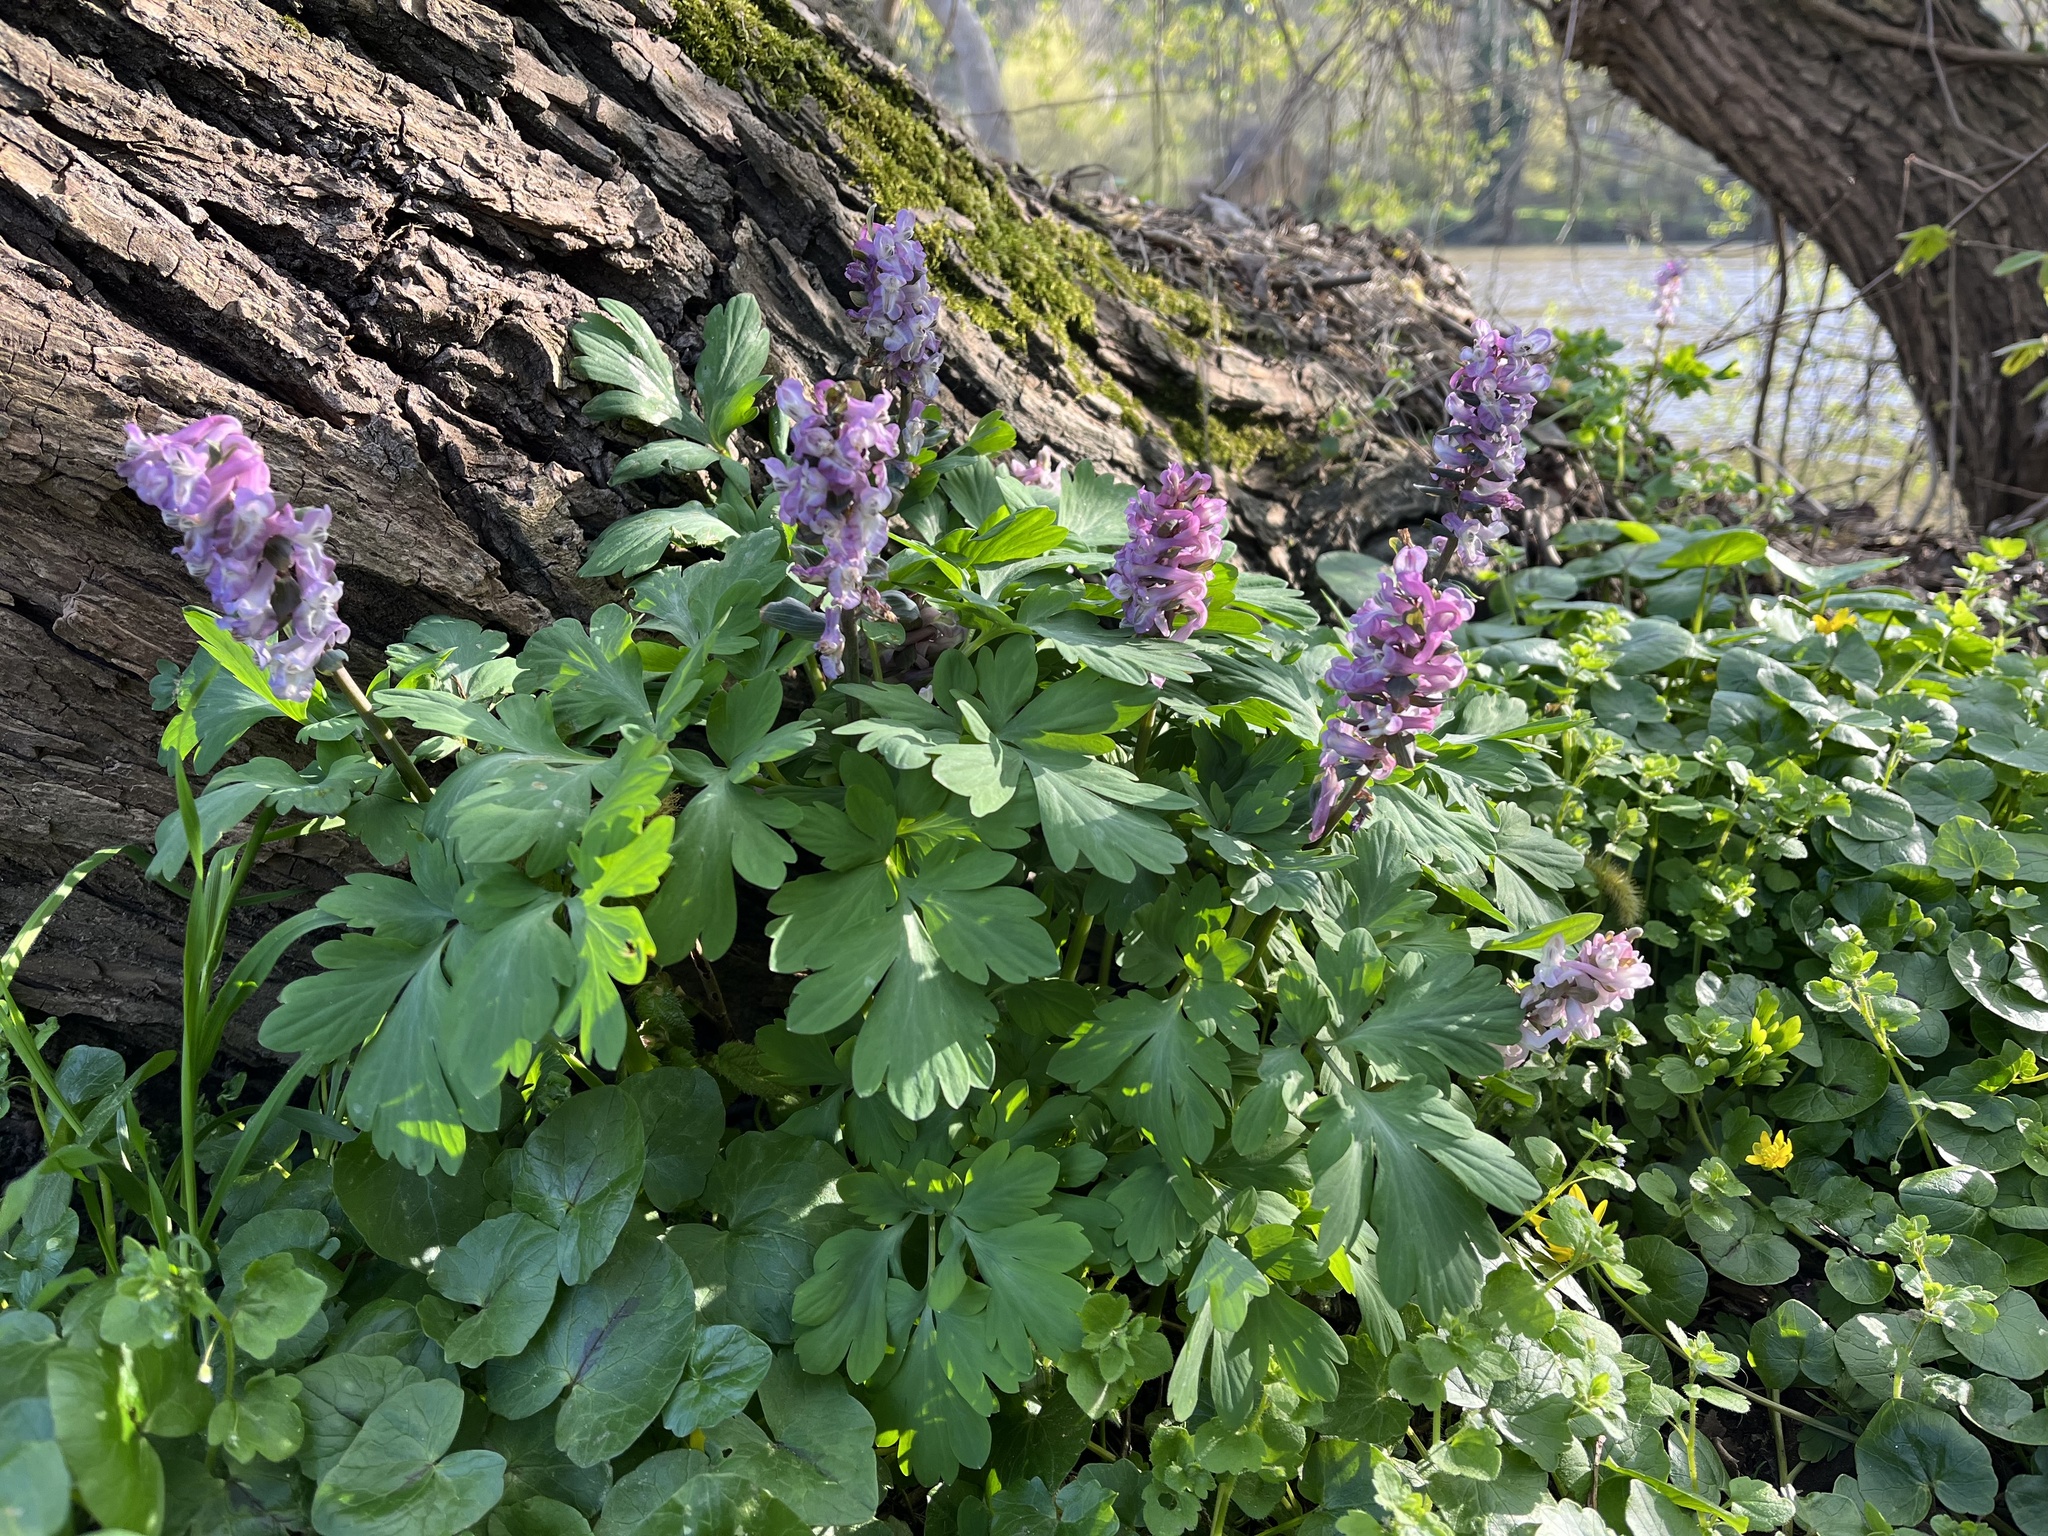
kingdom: Plantae
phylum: Tracheophyta
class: Magnoliopsida
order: Ranunculales
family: Papaveraceae
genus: Corydalis
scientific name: Corydalis cava
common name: Hollowroot
